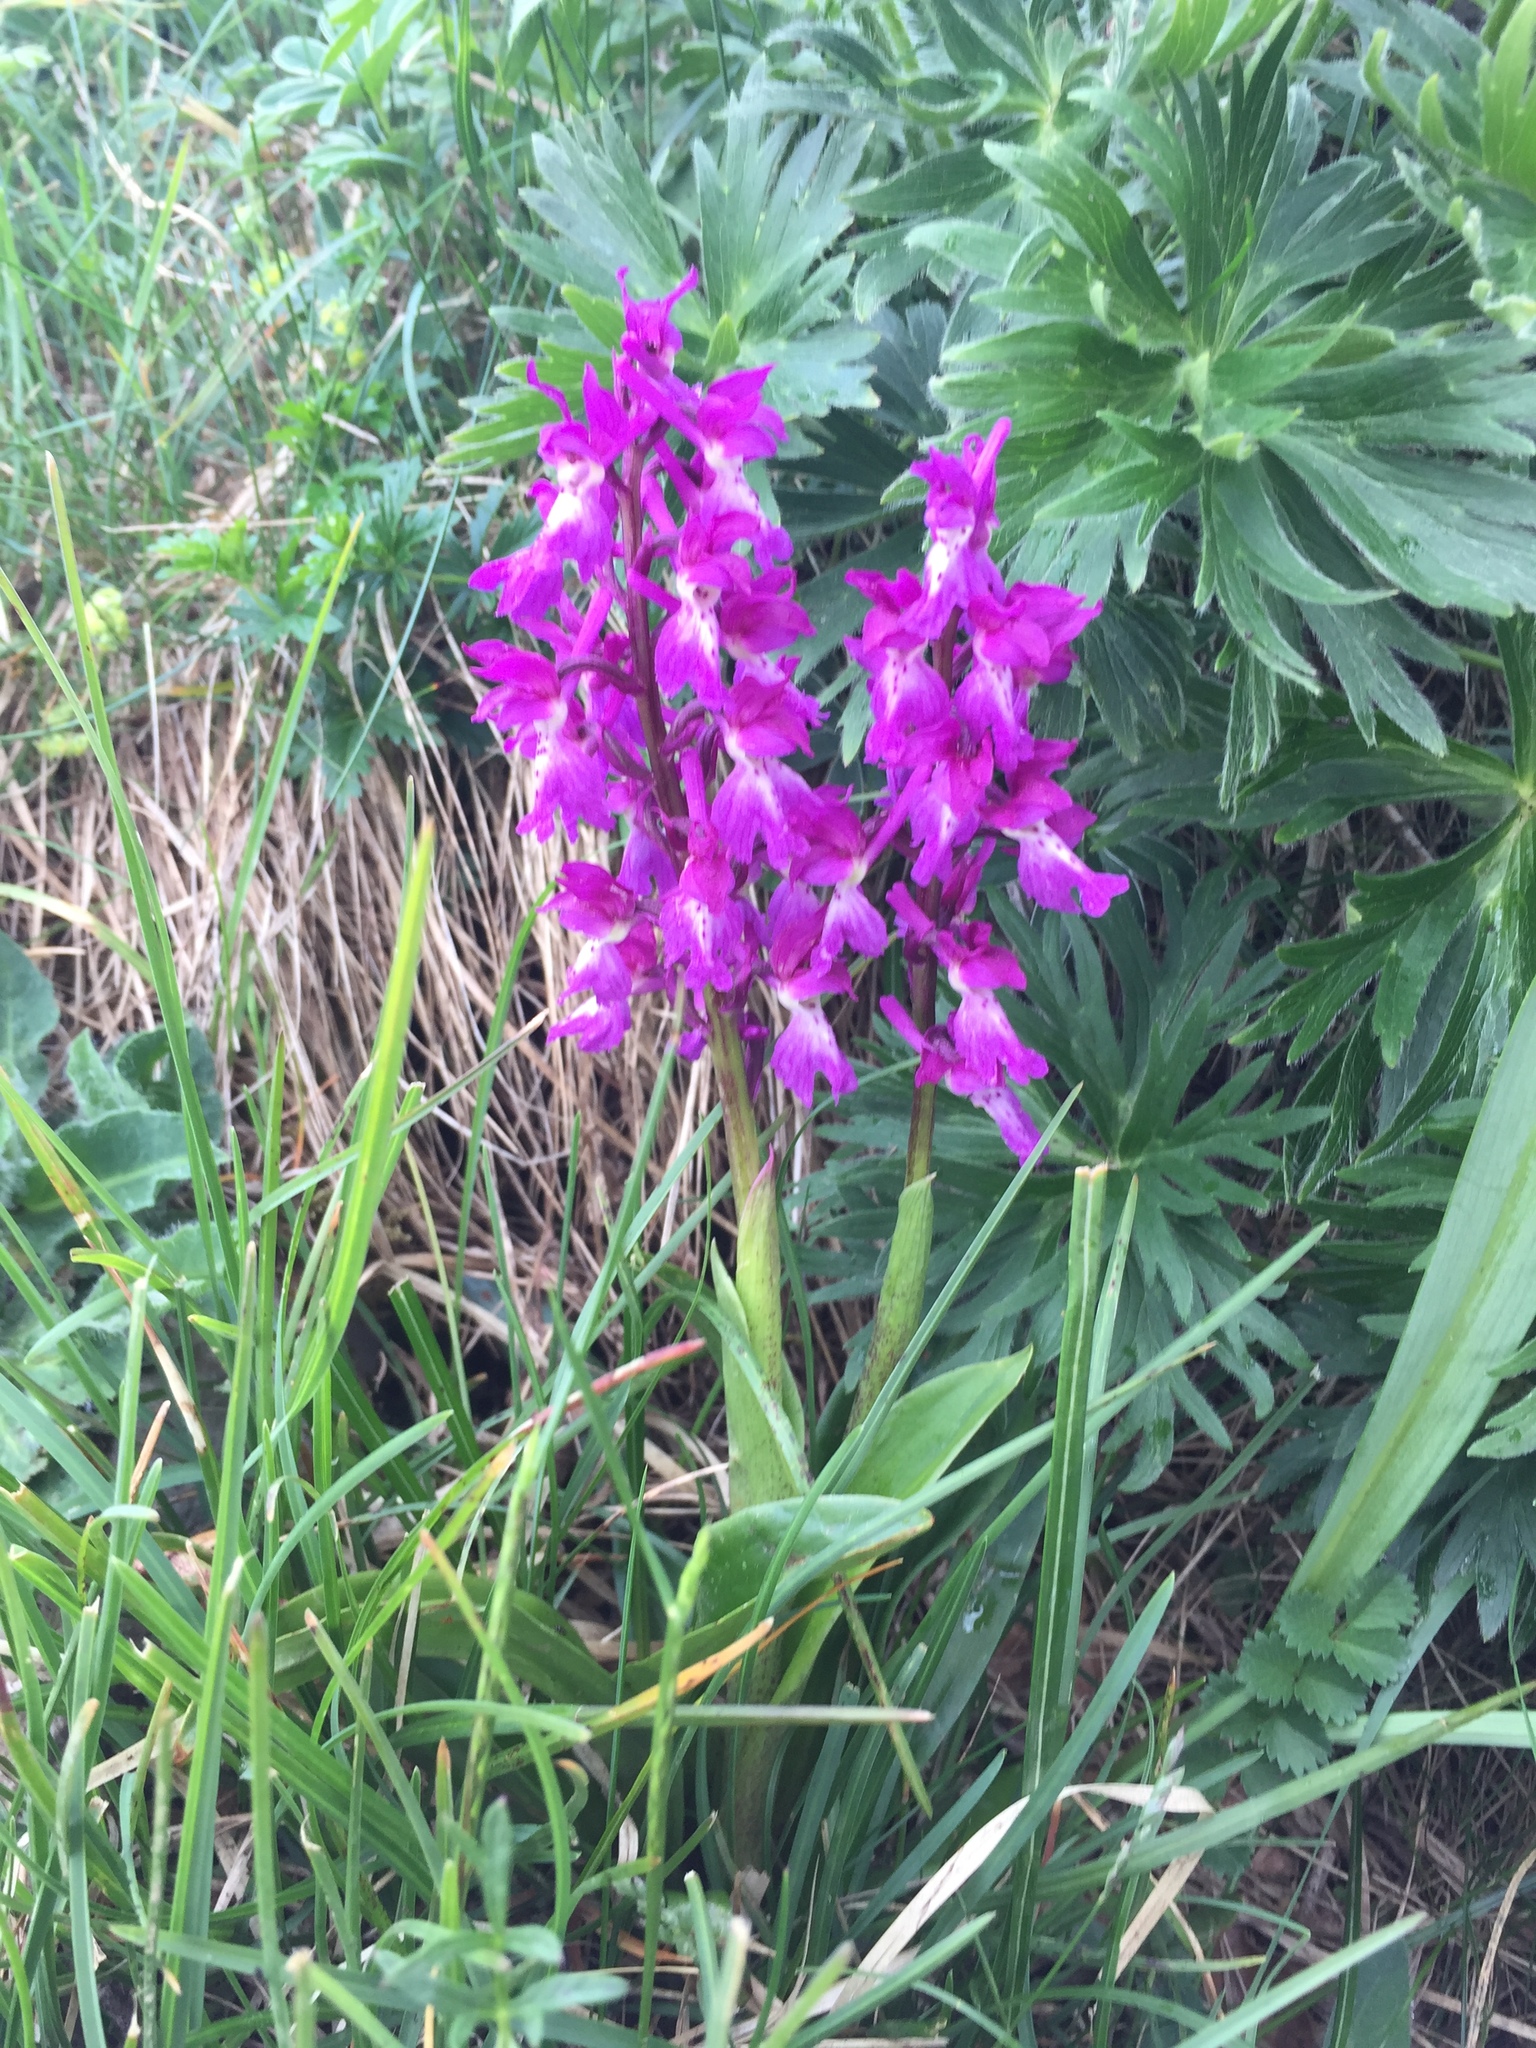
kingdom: Plantae
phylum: Tracheophyta
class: Liliopsida
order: Asparagales
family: Orchidaceae
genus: Orchis
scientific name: Orchis mascula
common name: Early-purple orchid
